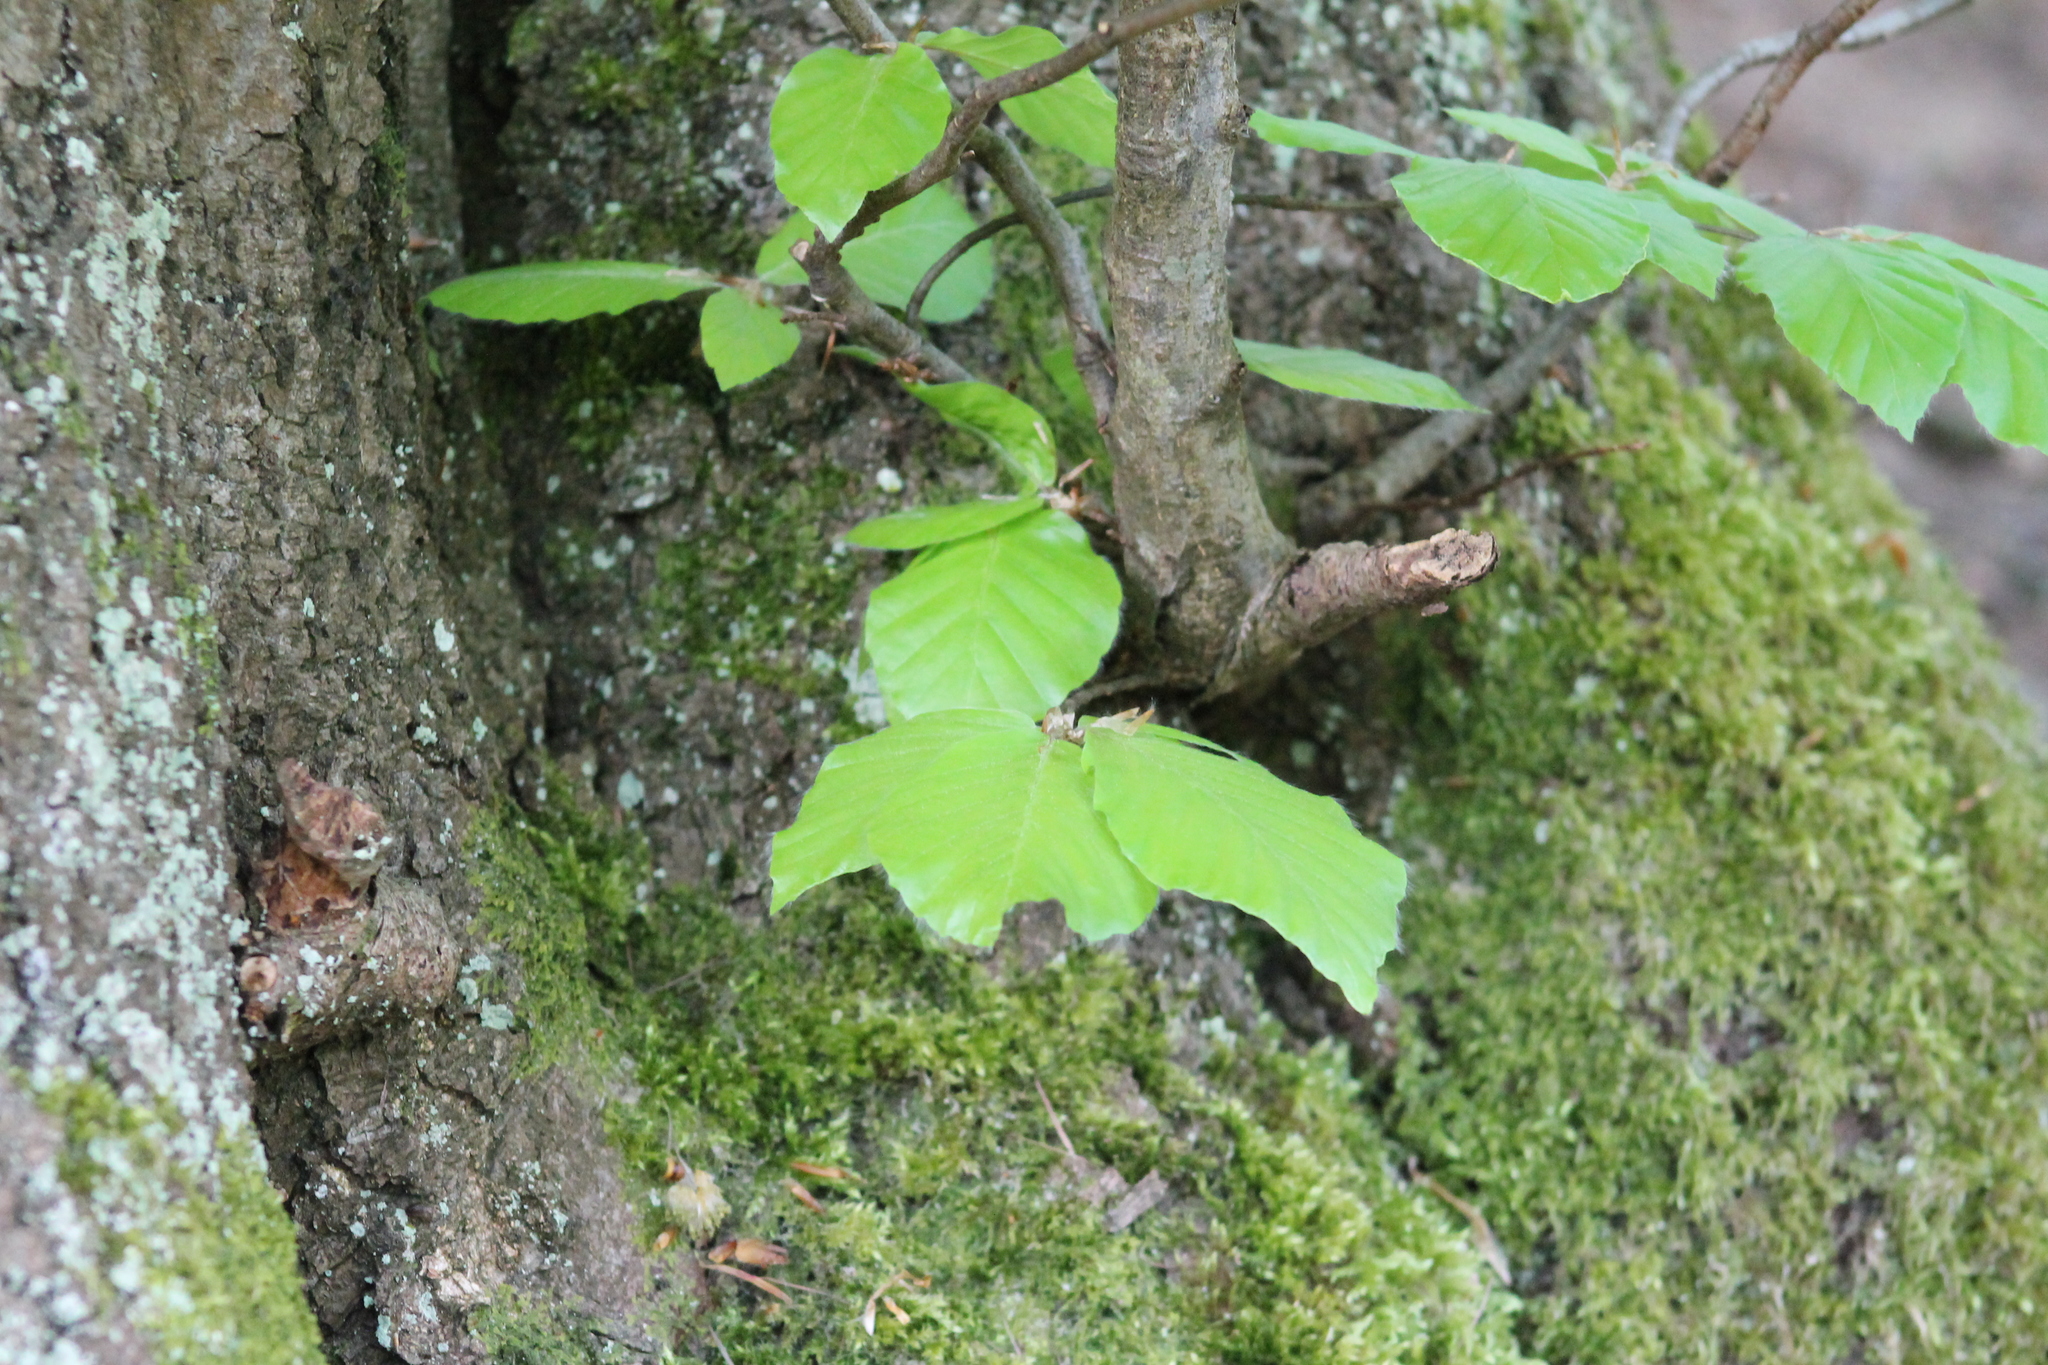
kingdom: Plantae
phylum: Tracheophyta
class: Magnoliopsida
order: Fagales
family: Fagaceae
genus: Fagus
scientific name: Fagus sylvatica
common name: Beech
